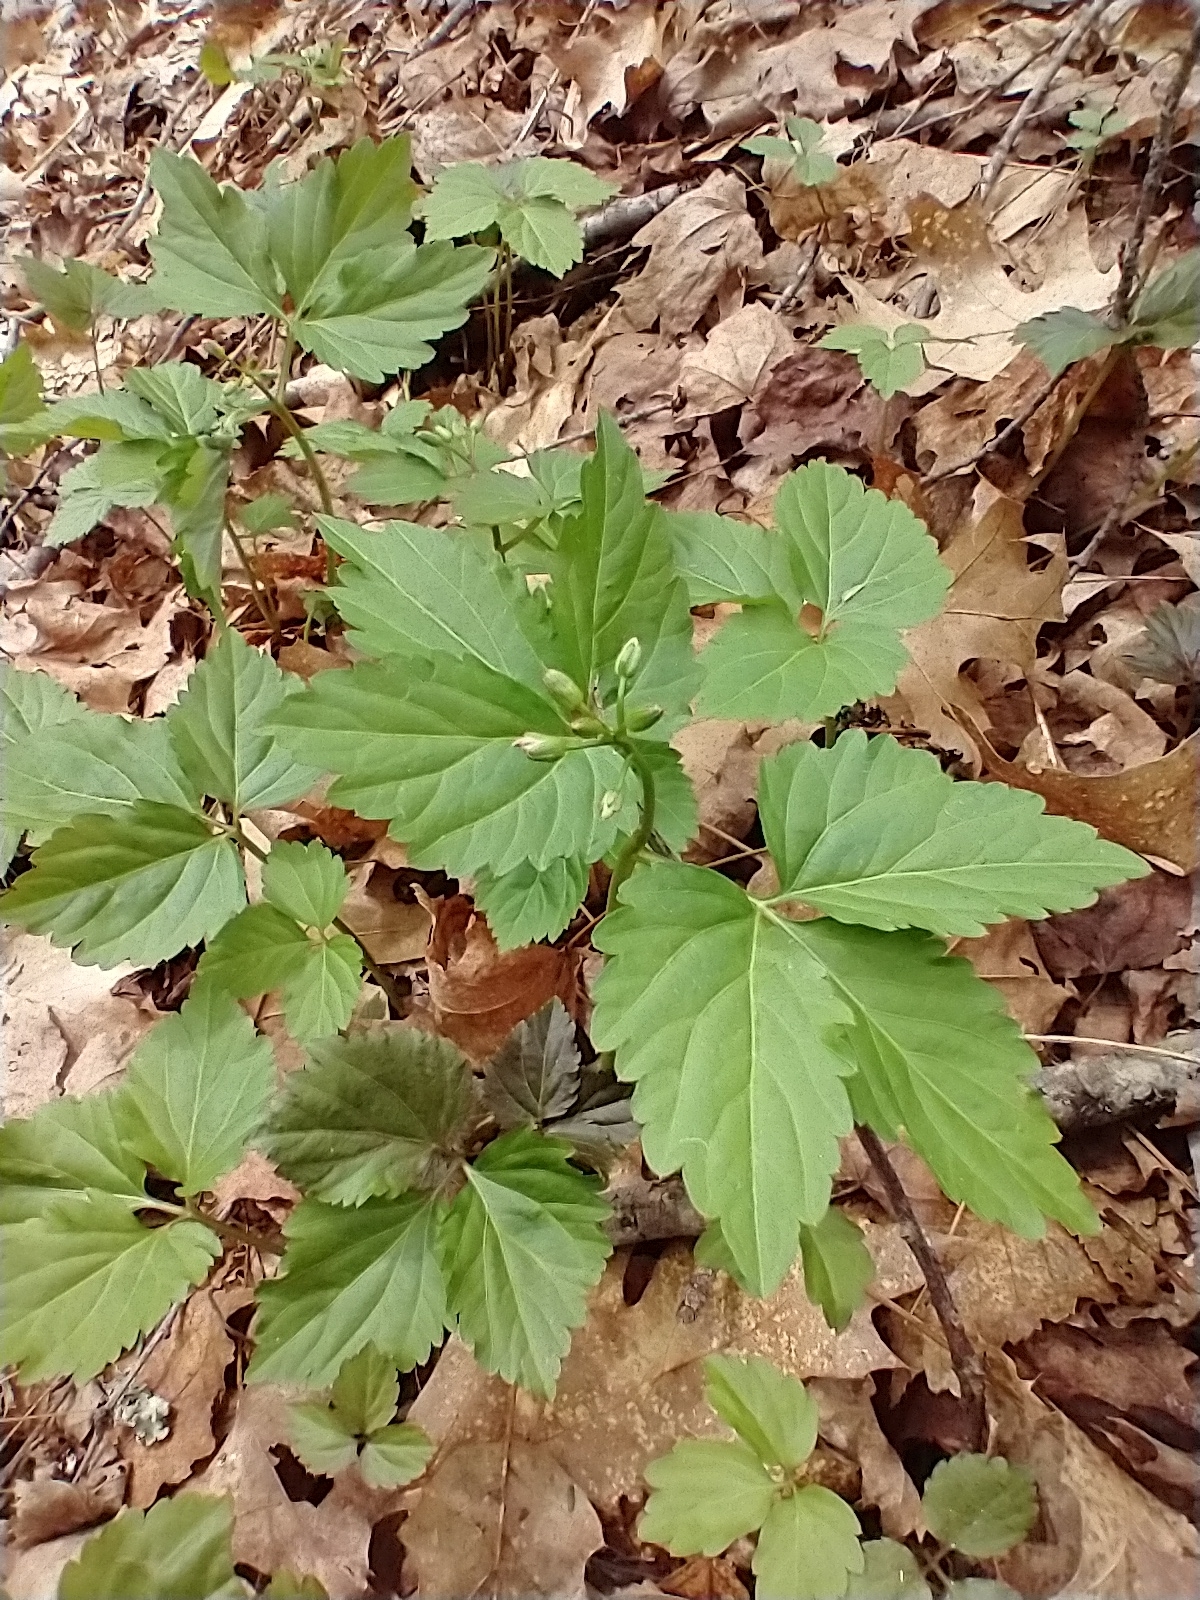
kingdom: Plantae
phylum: Tracheophyta
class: Magnoliopsida
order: Brassicales
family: Brassicaceae
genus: Cardamine
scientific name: Cardamine diphylla
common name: Broad-leaved toothwort
